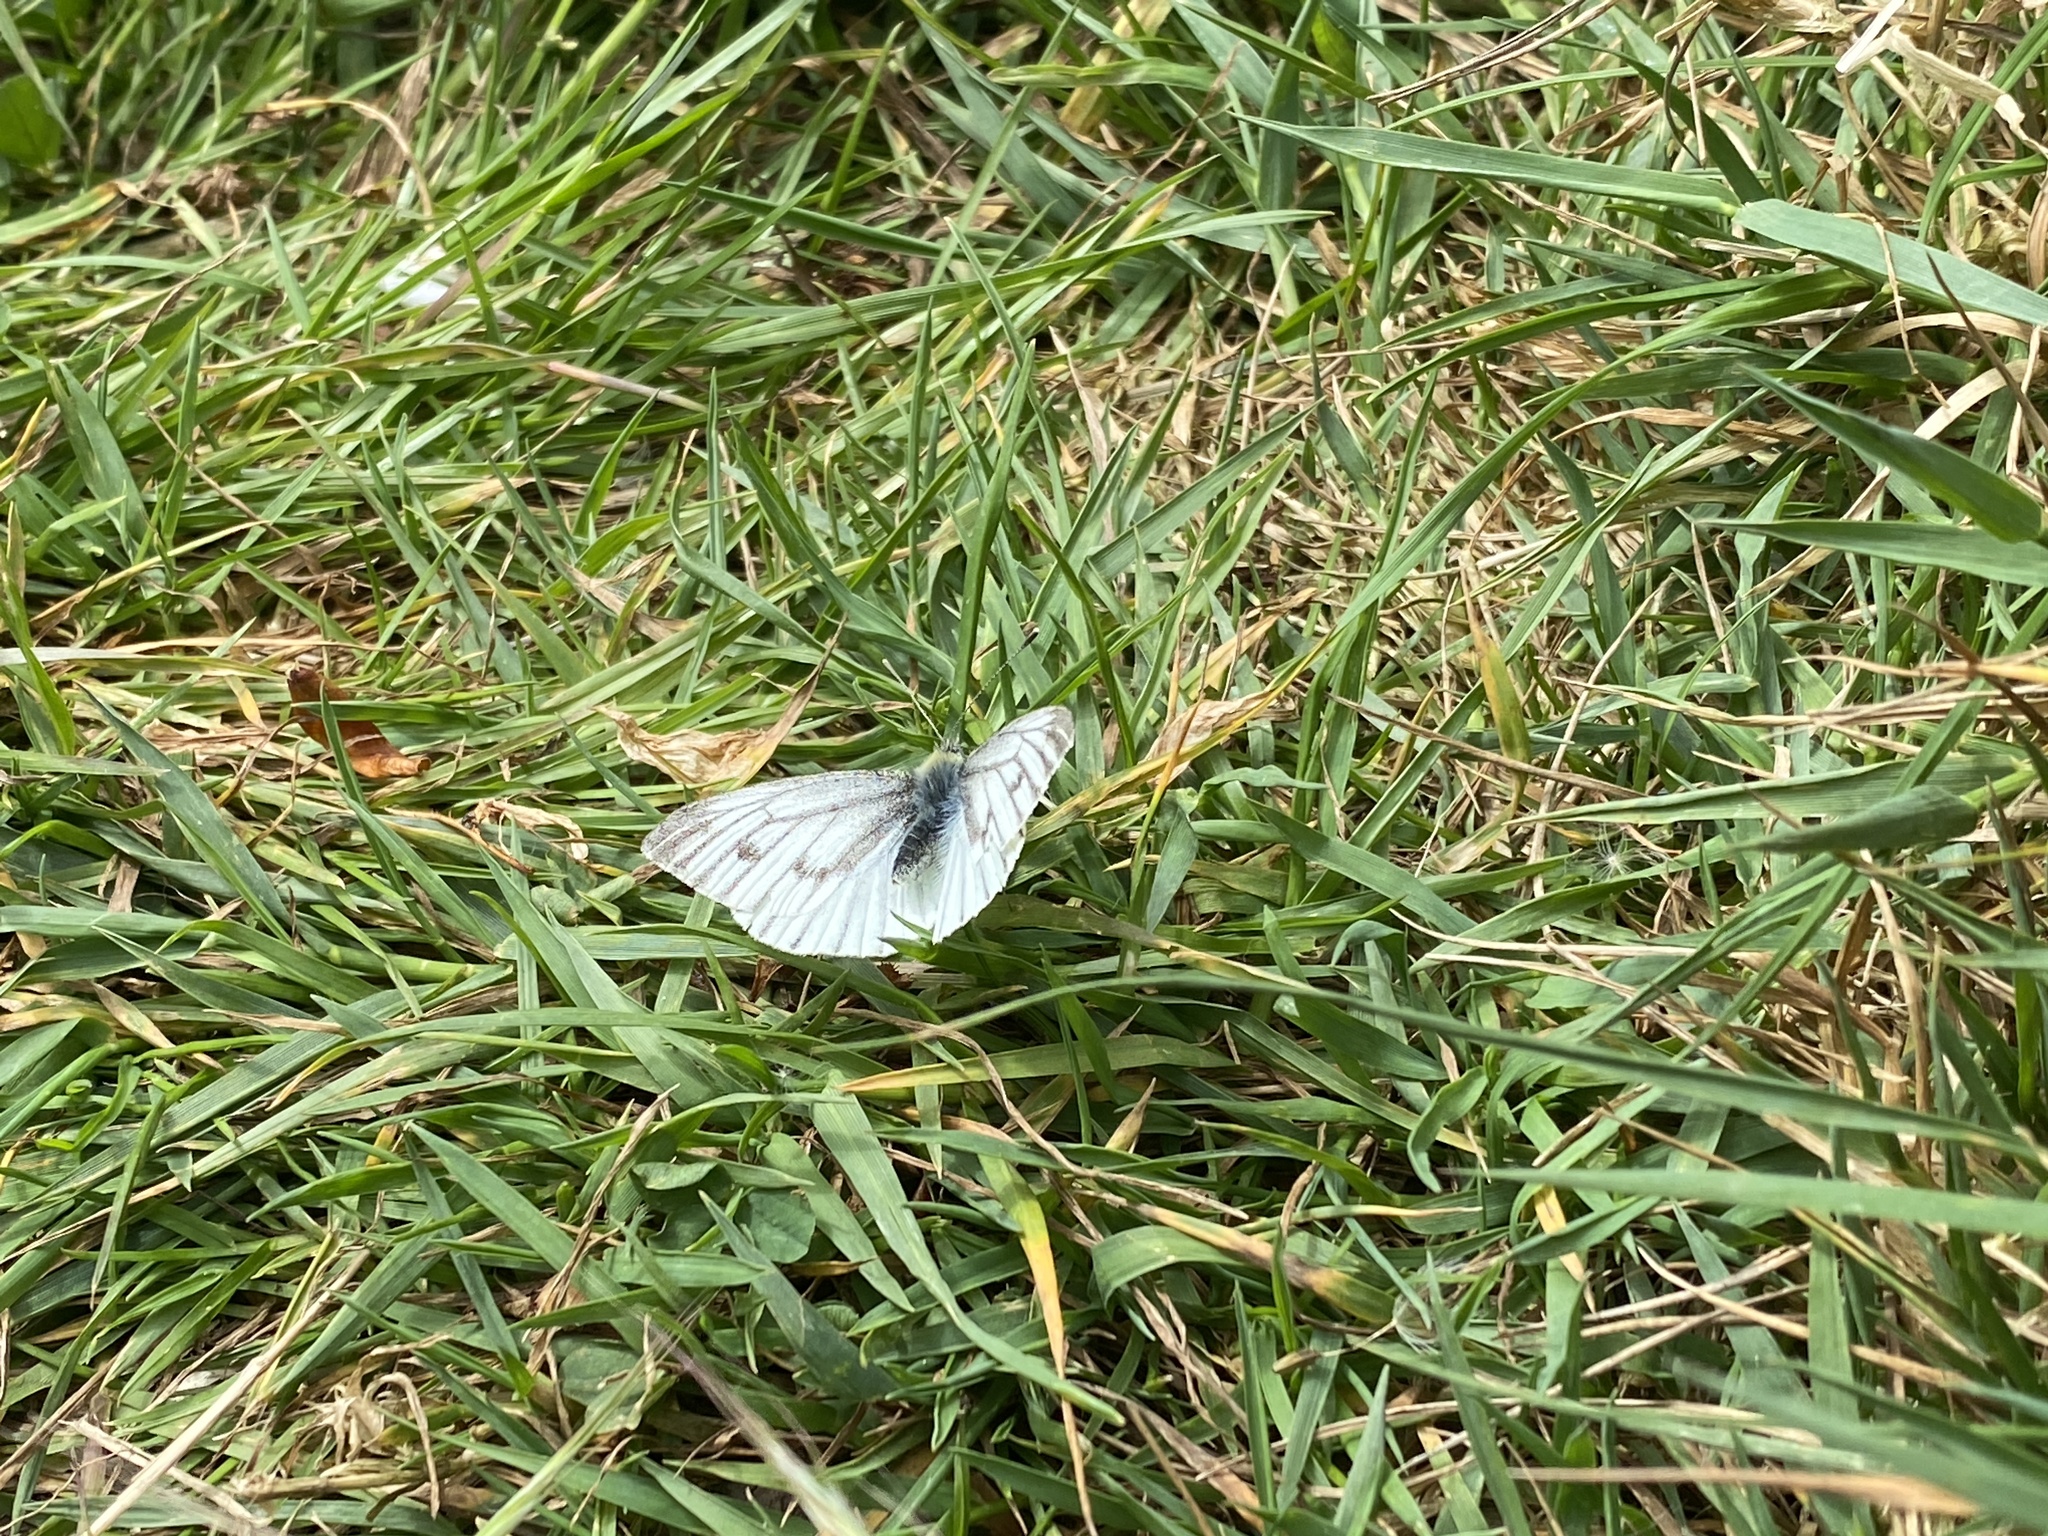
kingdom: Animalia
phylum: Arthropoda
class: Insecta
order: Lepidoptera
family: Pieridae
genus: Pieris
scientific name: Pieris napi
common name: Green-veined white
